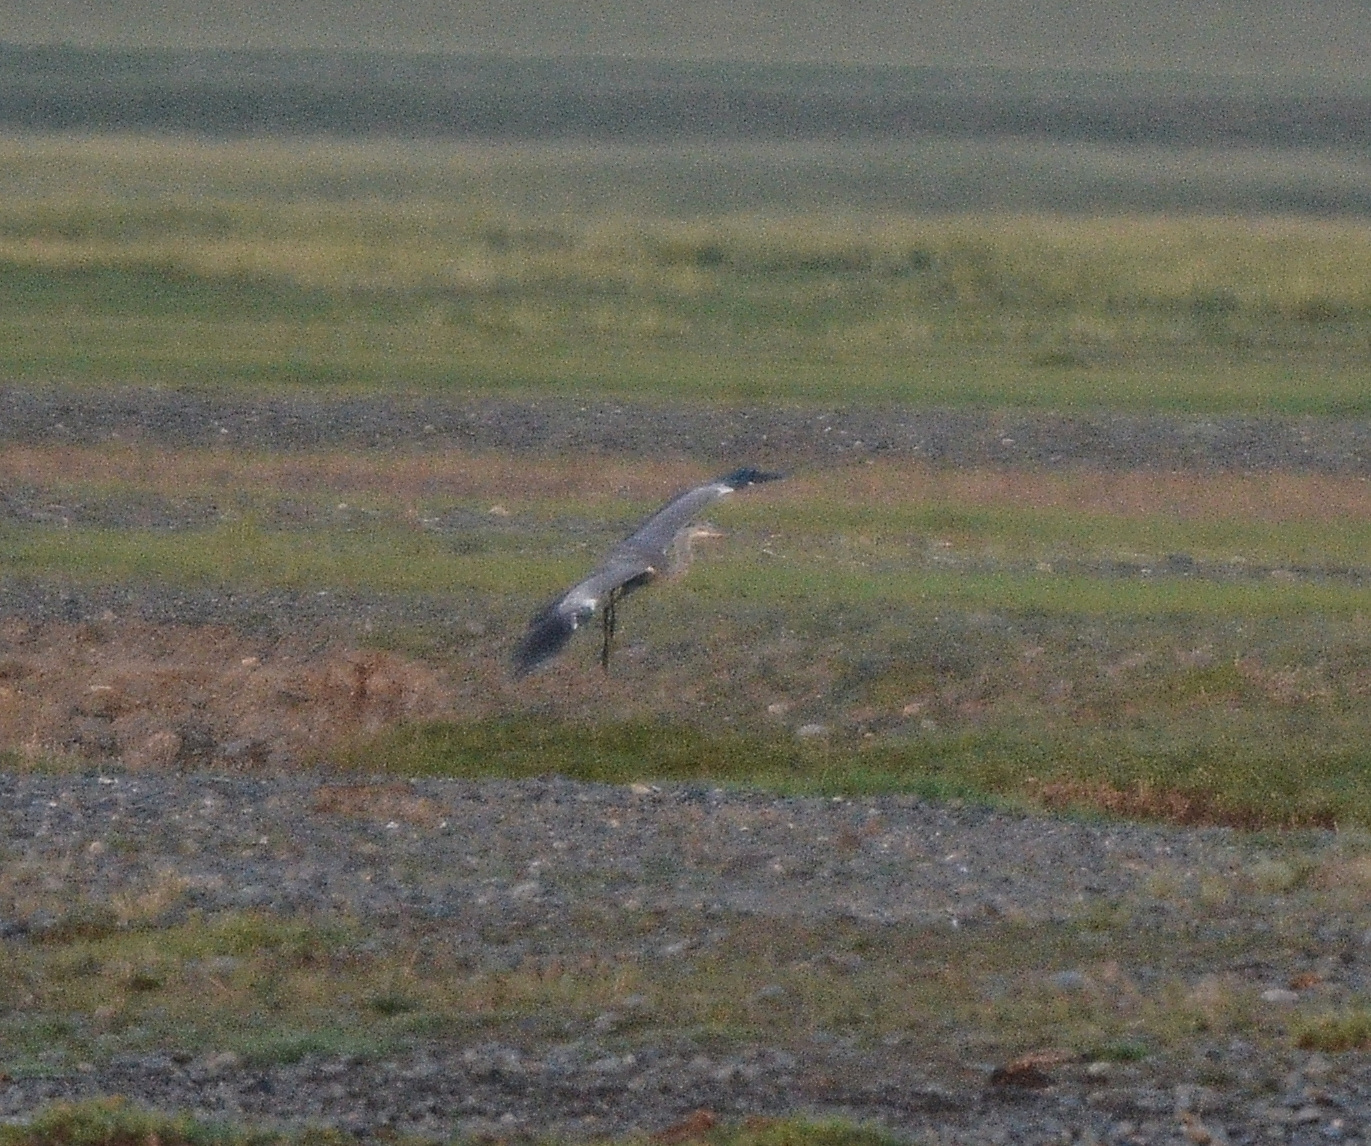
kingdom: Animalia
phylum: Chordata
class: Aves
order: Pelecaniformes
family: Ardeidae
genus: Ardea
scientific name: Ardea cinerea
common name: Grey heron
